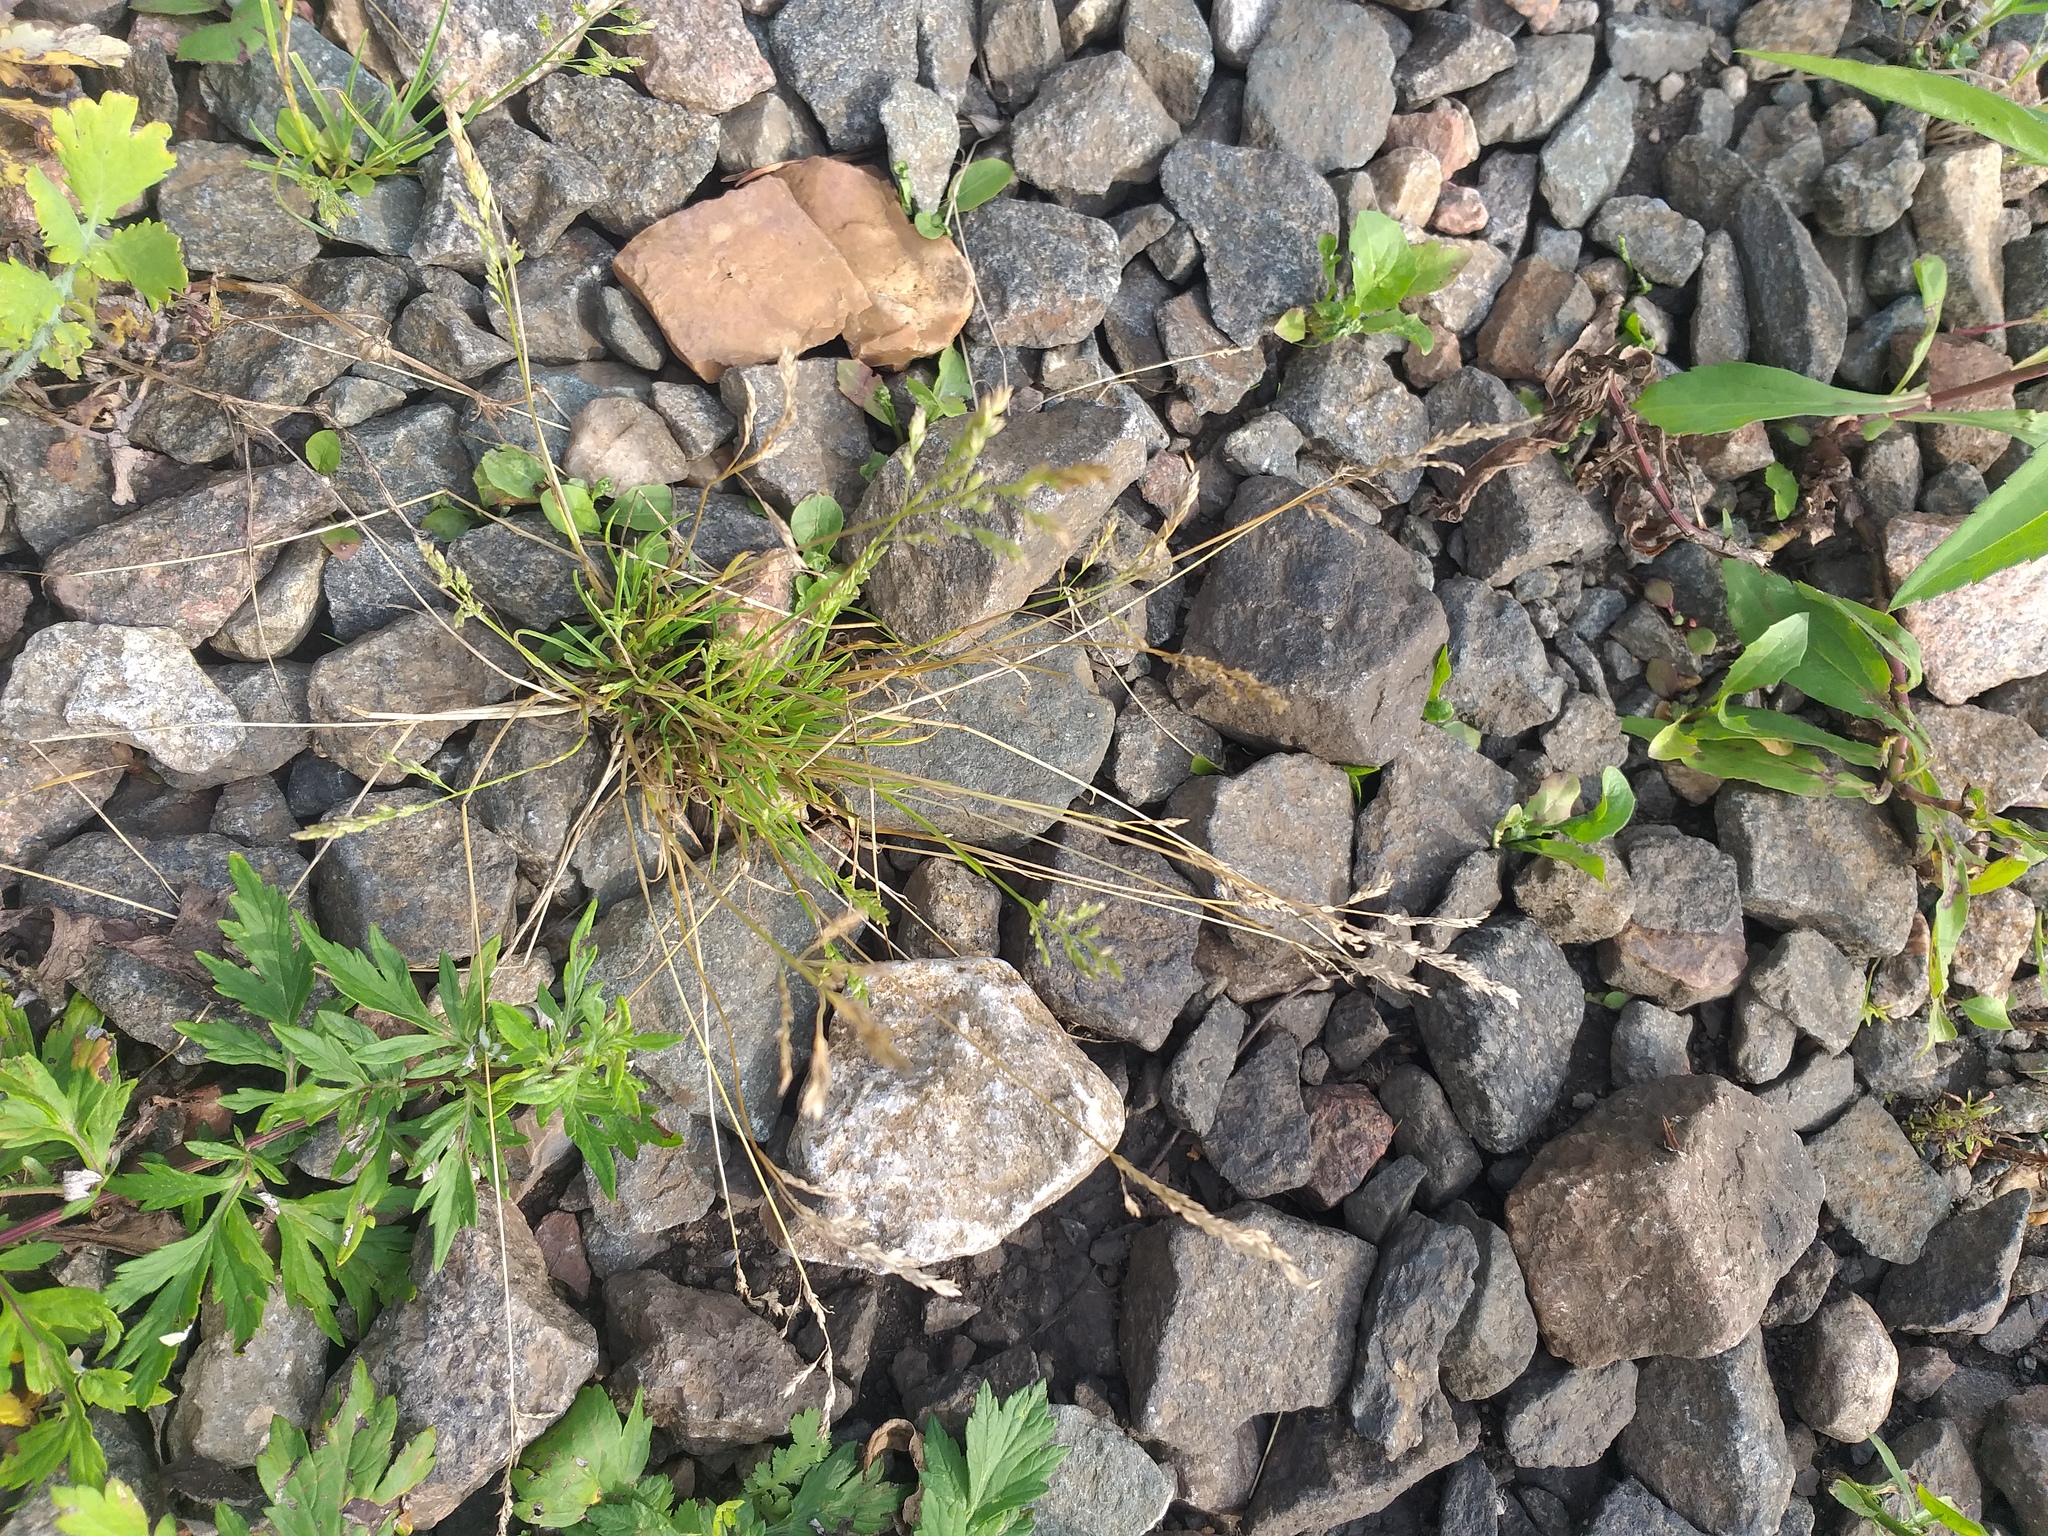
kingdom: Plantae
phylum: Tracheophyta
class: Liliopsida
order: Poales
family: Poaceae
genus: Poa
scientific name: Poa annua
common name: Annual bluegrass
